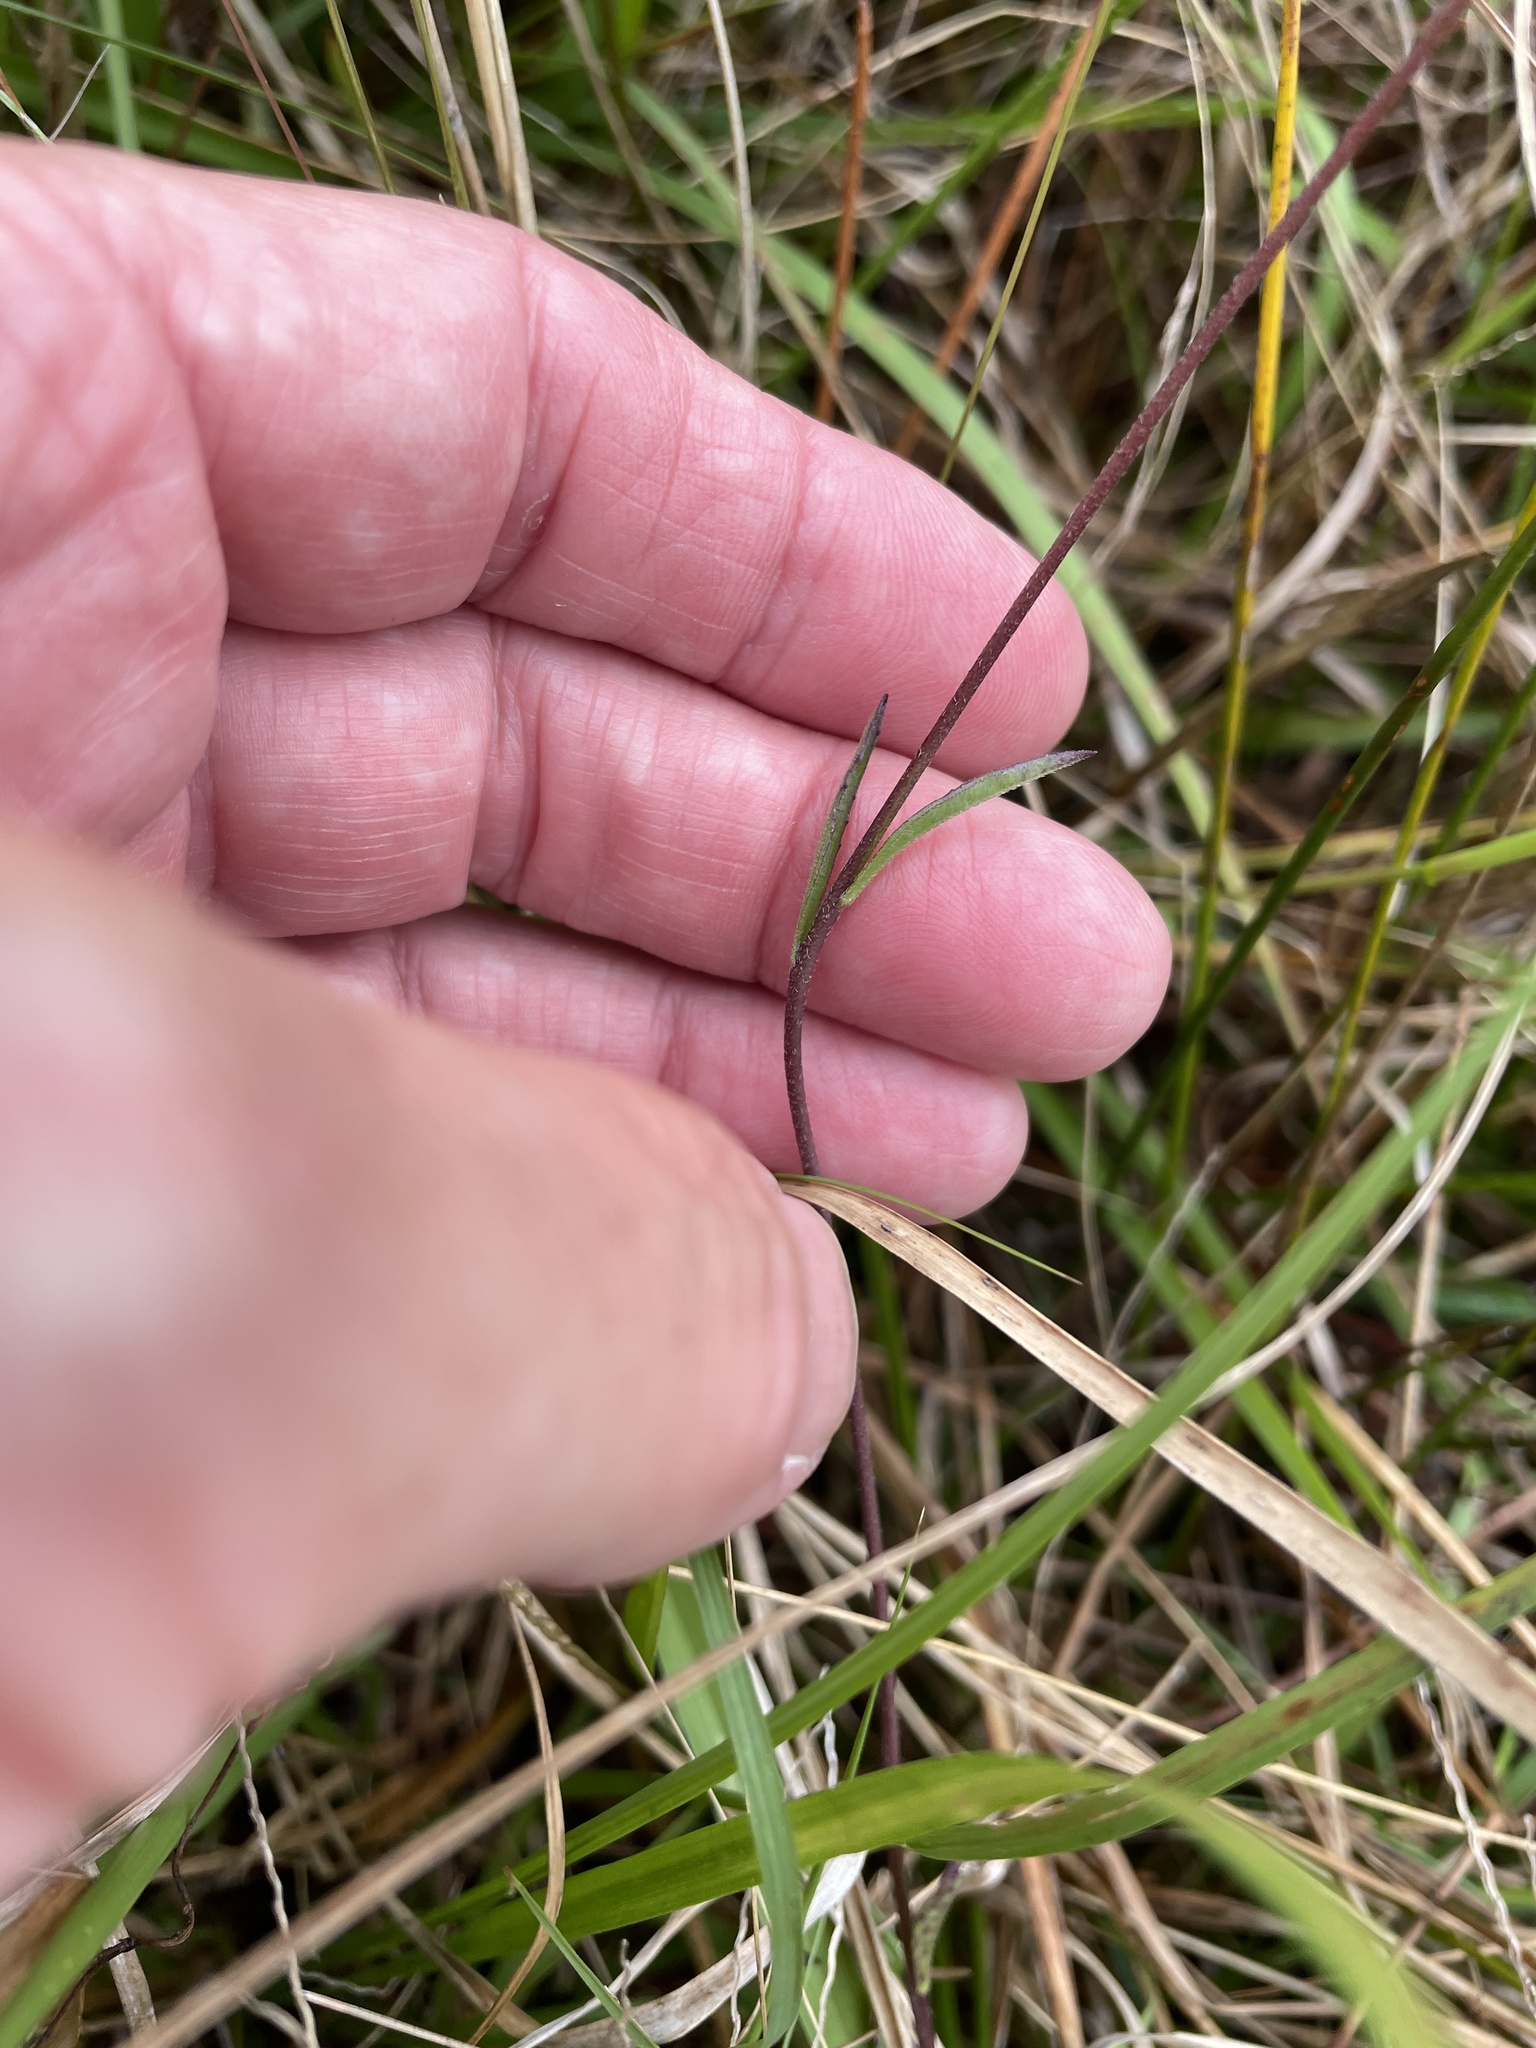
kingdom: Plantae
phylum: Tracheophyta
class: Magnoliopsida
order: Lamiales
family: Orobanchaceae
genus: Buchnera
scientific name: Buchnera floridana
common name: Florida bluehearts
